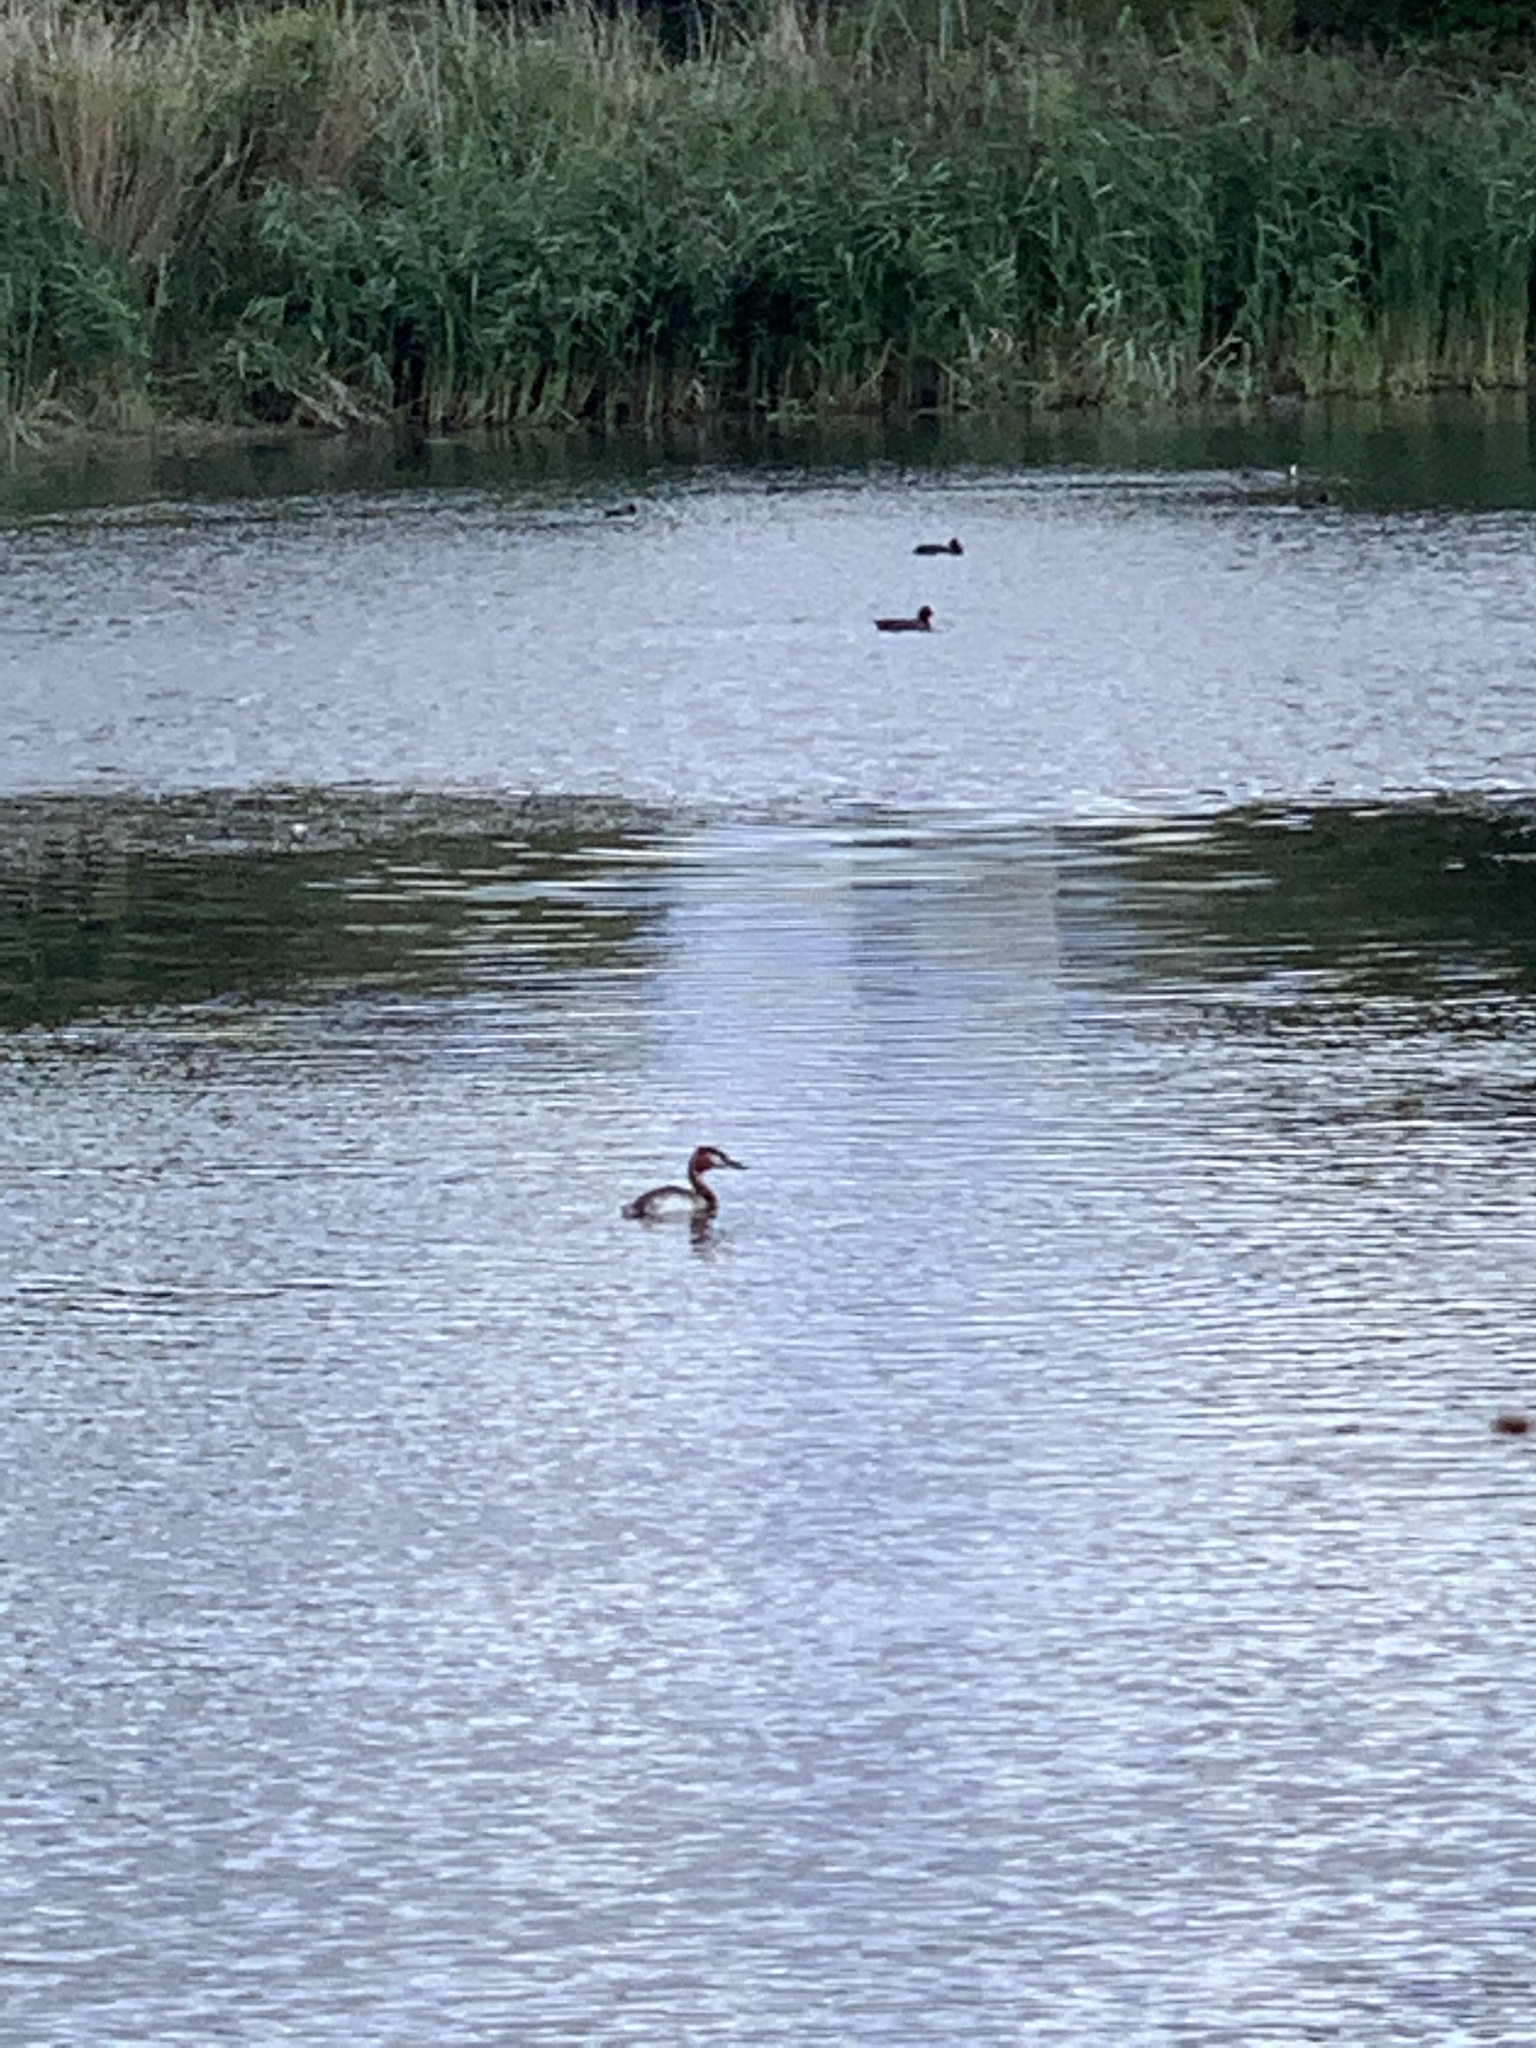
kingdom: Animalia
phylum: Chordata
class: Aves
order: Podicipediformes
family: Podicipedidae
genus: Podiceps
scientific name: Podiceps cristatus
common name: Great crested grebe
